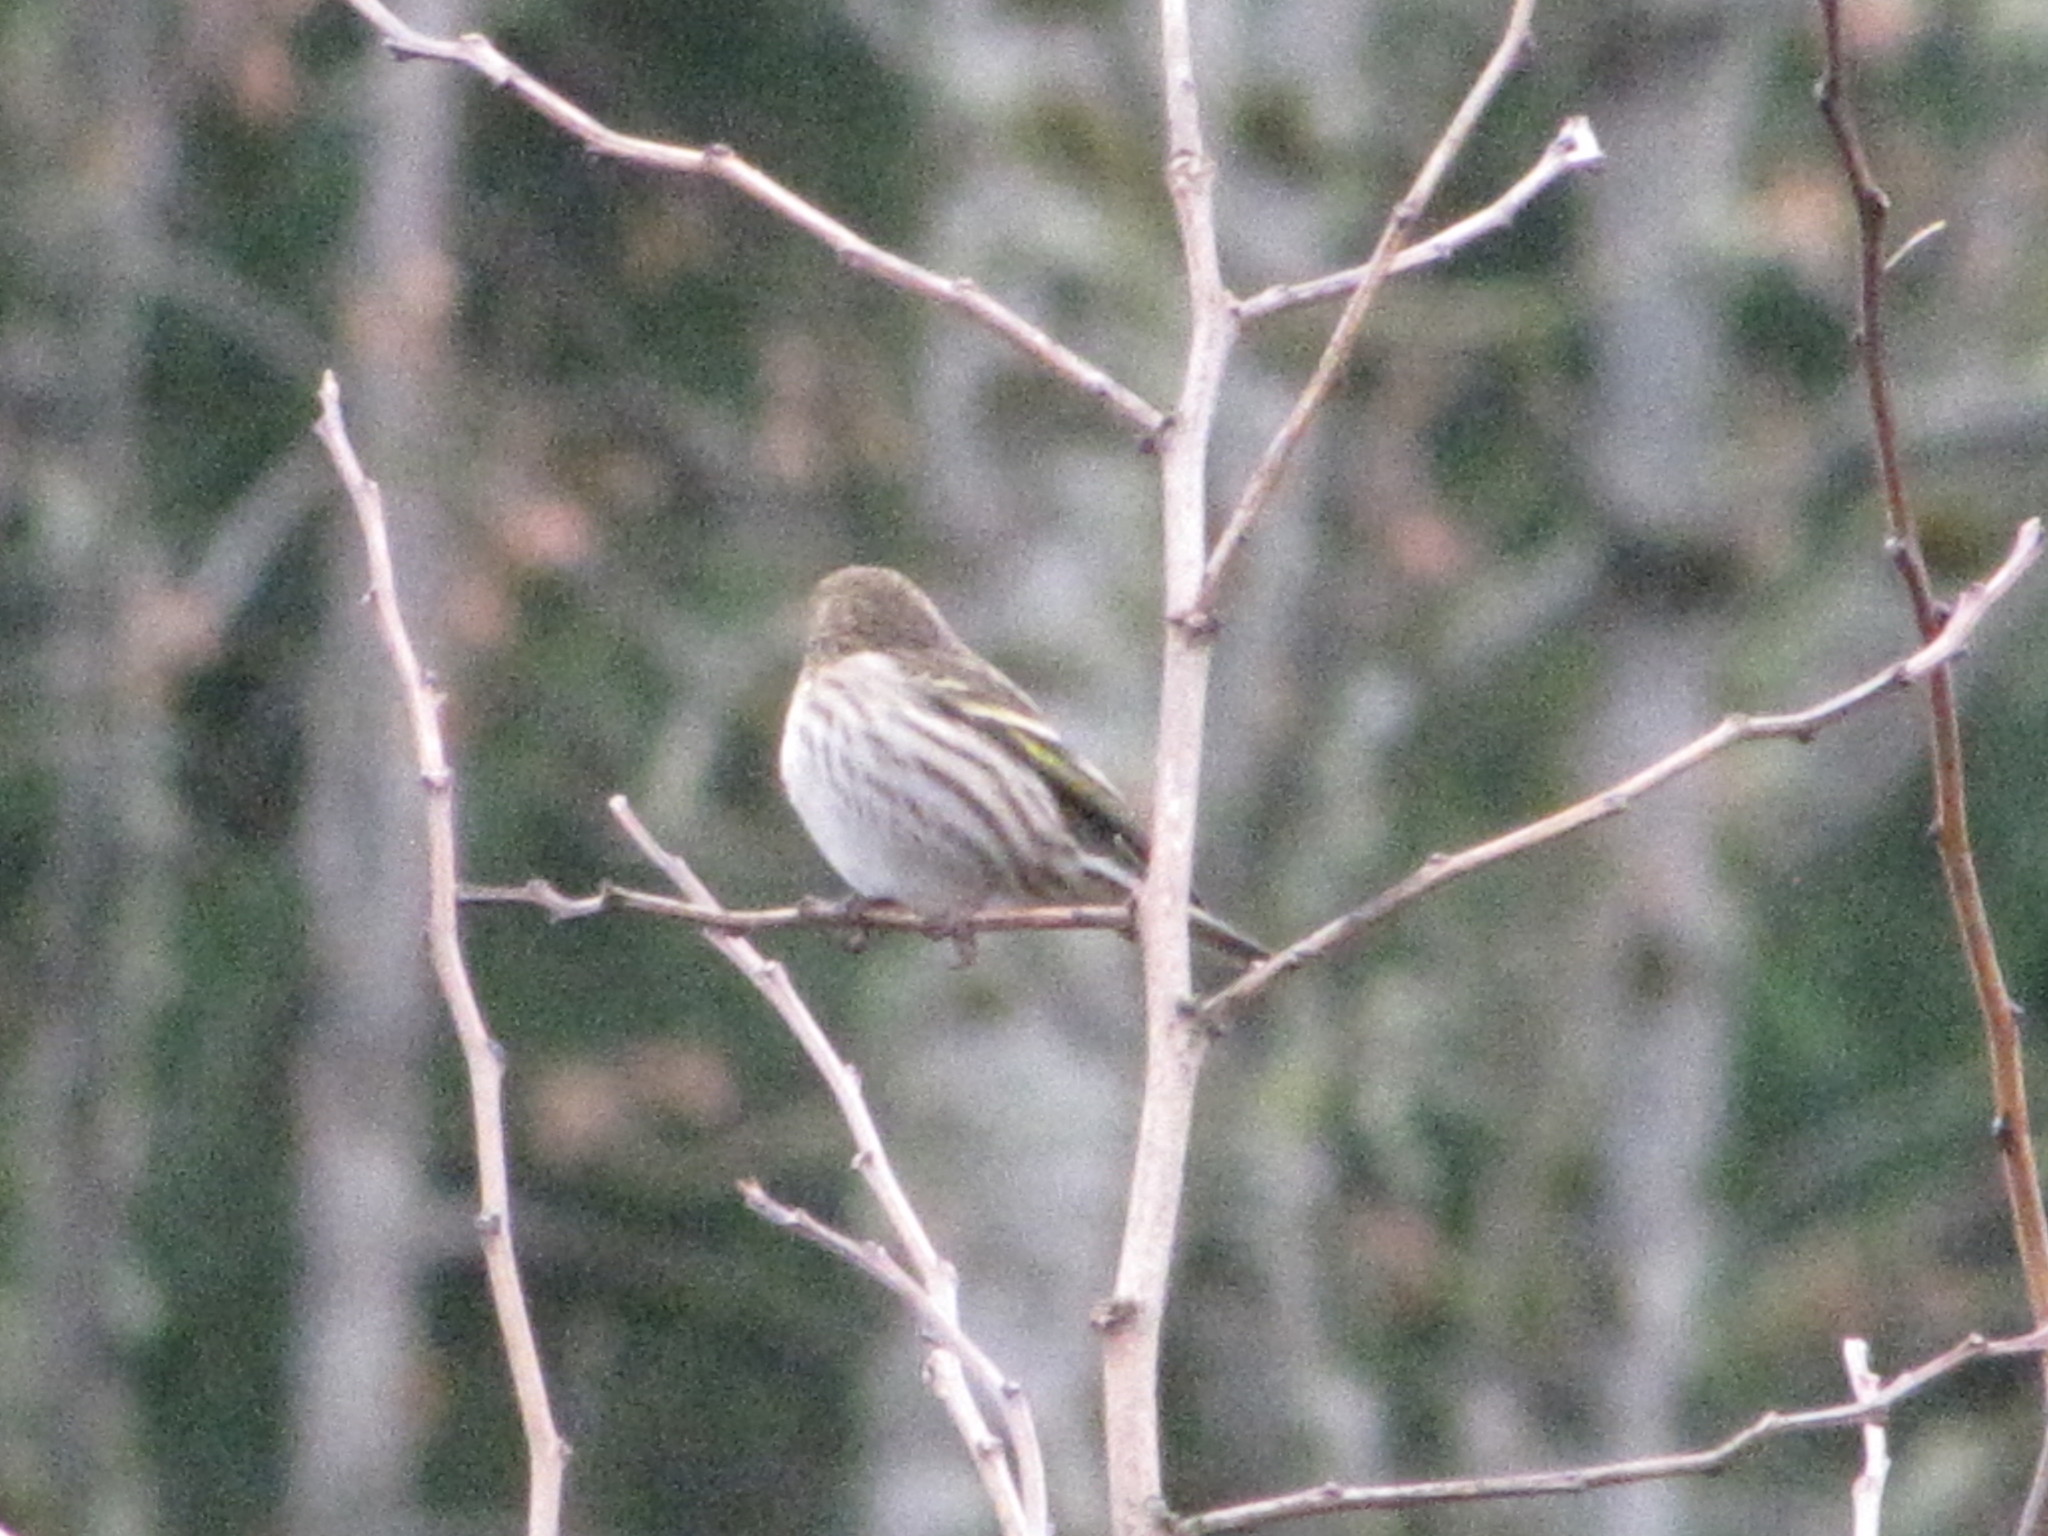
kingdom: Animalia
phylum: Chordata
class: Aves
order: Passeriformes
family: Fringillidae
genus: Spinus
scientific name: Spinus pinus
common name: Pine siskin
